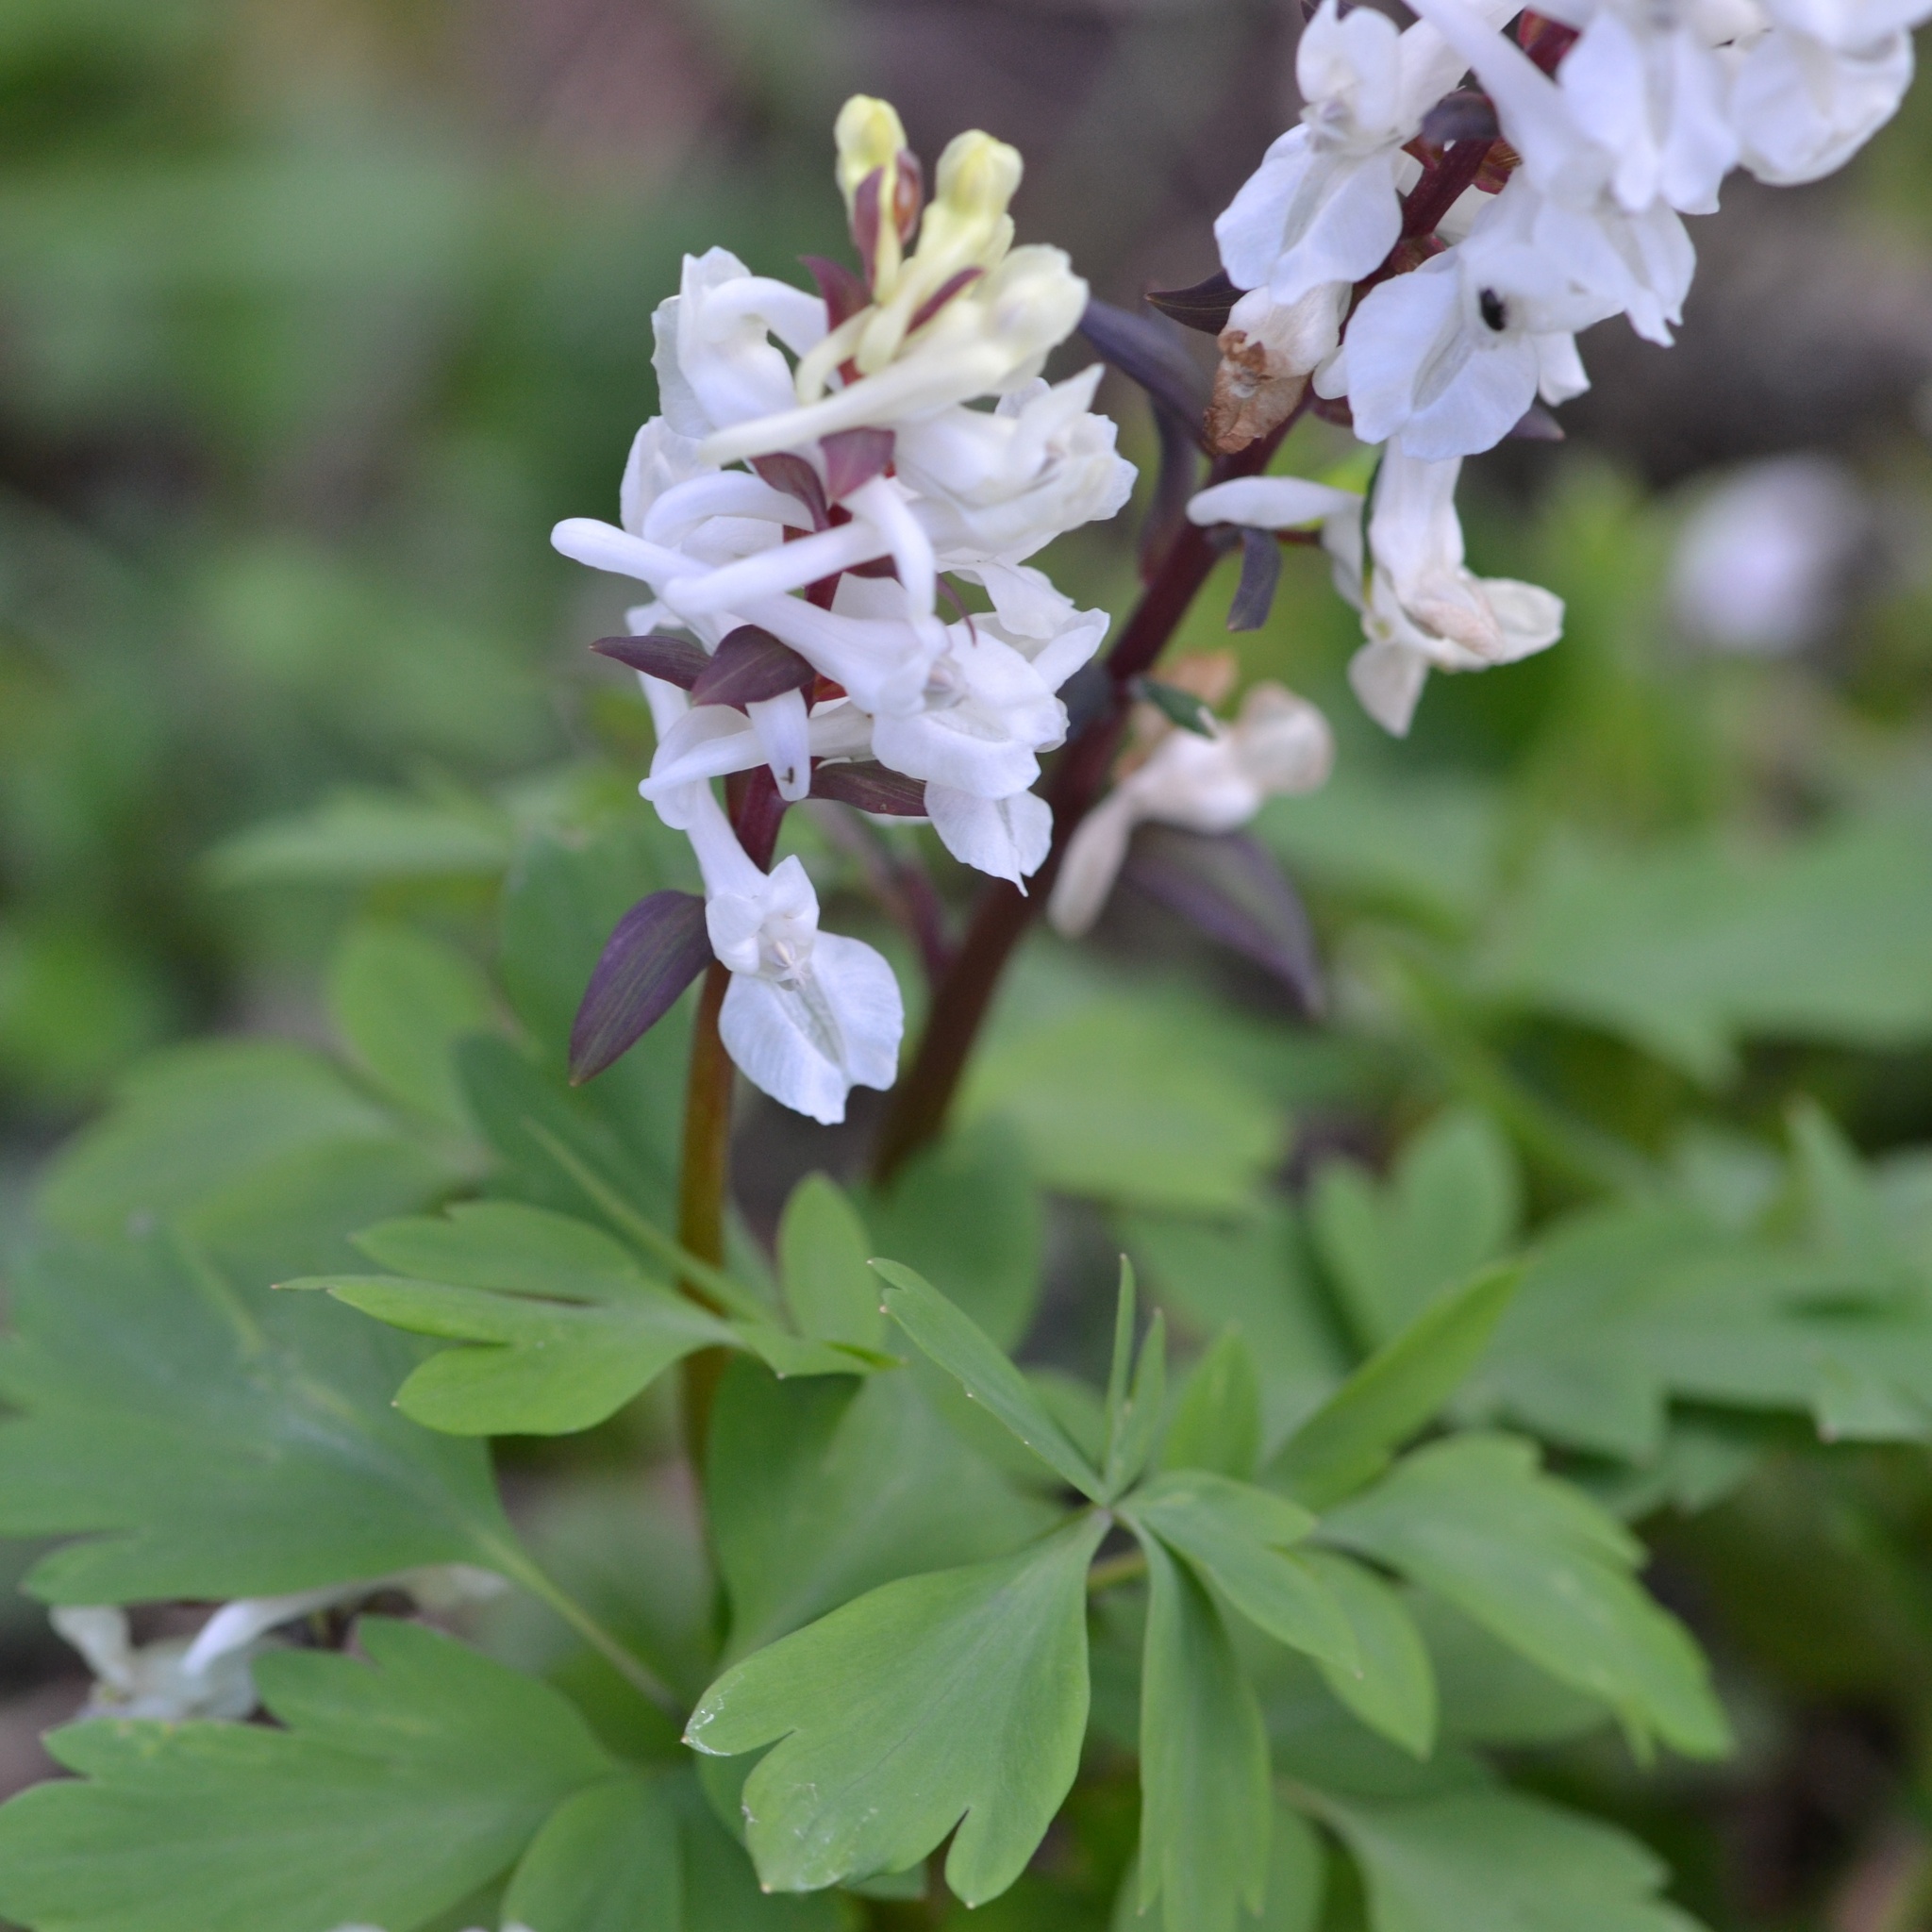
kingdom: Plantae
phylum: Tracheophyta
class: Magnoliopsida
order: Ranunculales
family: Papaveraceae
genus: Corydalis
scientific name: Corydalis cava
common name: Hollowroot
